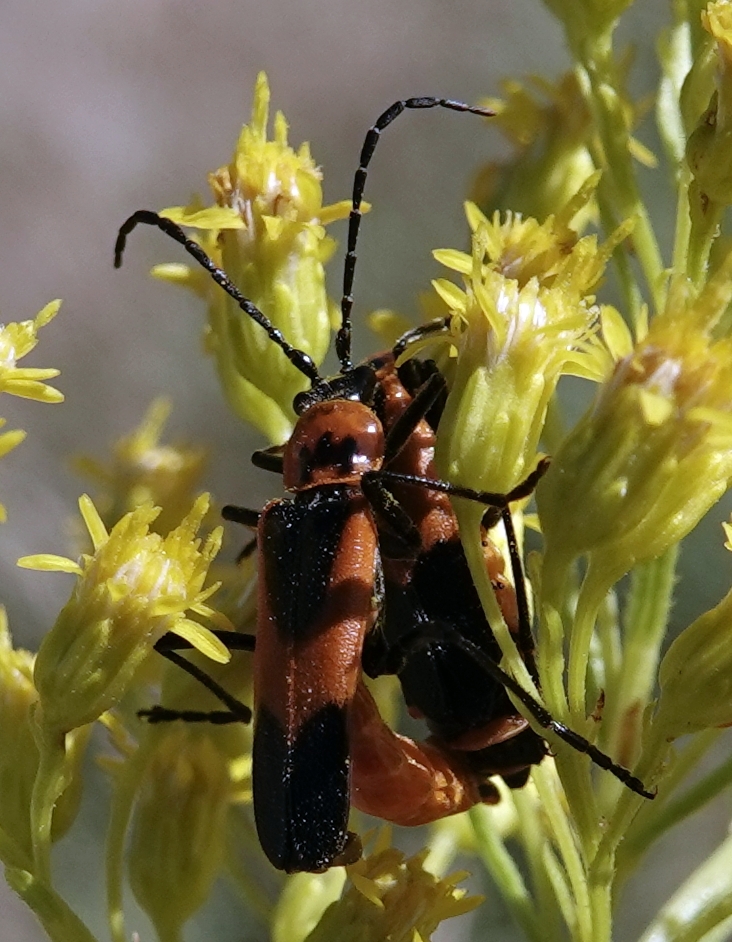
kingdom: Animalia
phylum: Arthropoda
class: Insecta
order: Coleoptera
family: Cantharidae
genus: Chauliognathus
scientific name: Chauliognathus basalis
